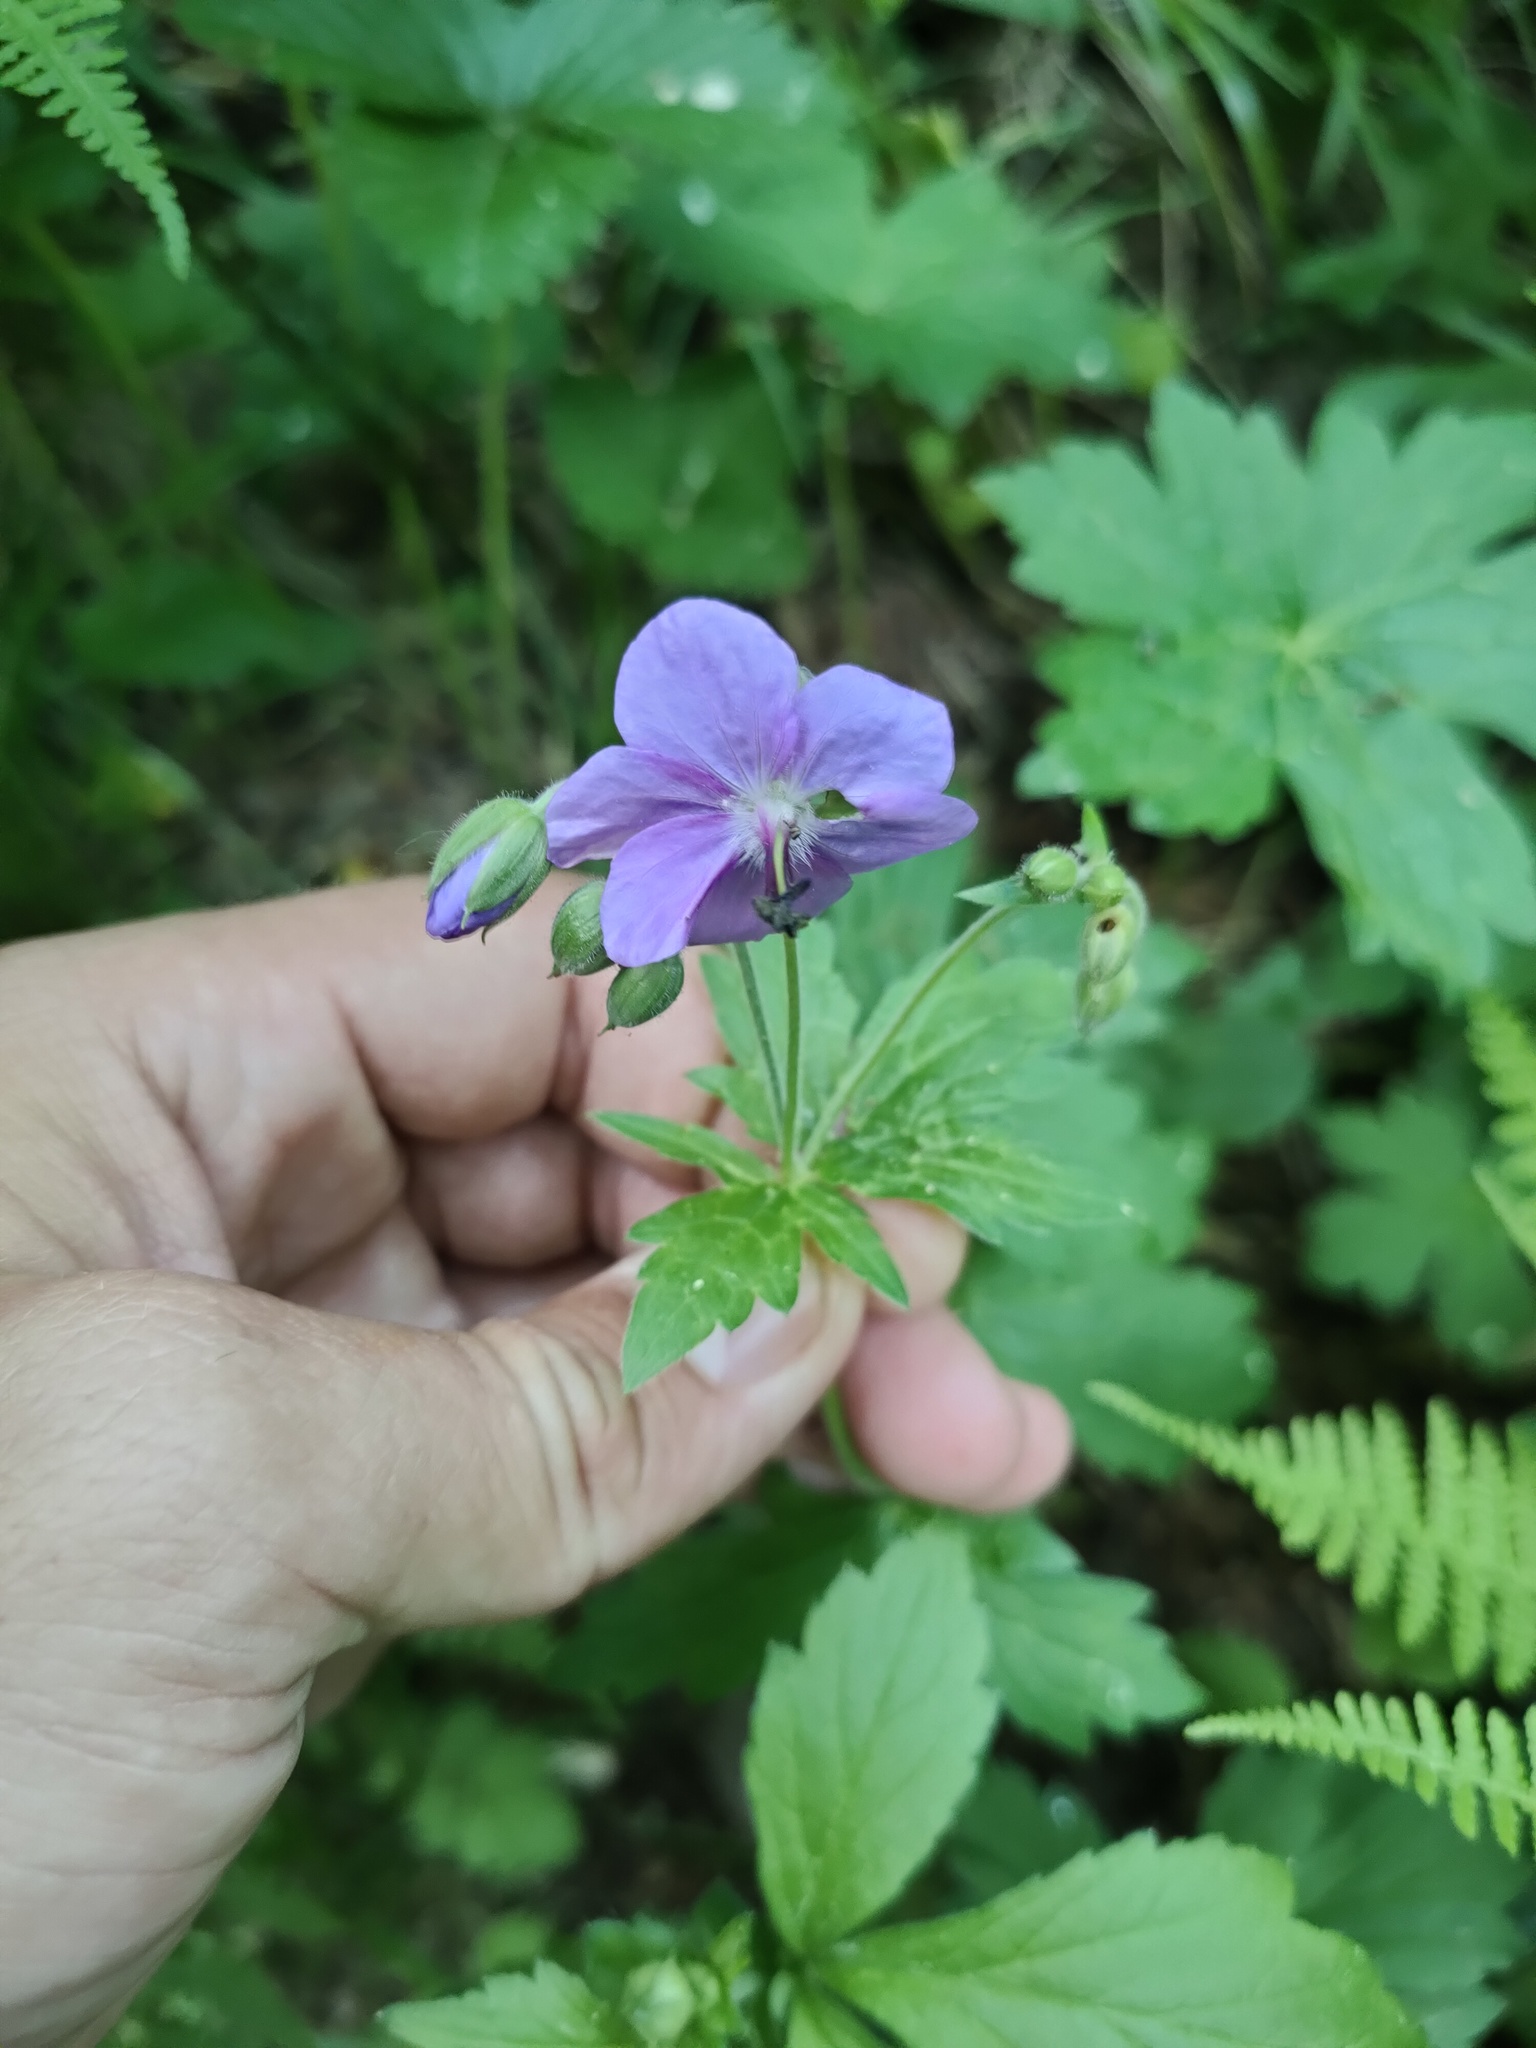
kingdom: Plantae
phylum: Tracheophyta
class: Magnoliopsida
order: Geraniales
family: Geraniaceae
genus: Geranium
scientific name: Geranium platyanthum
